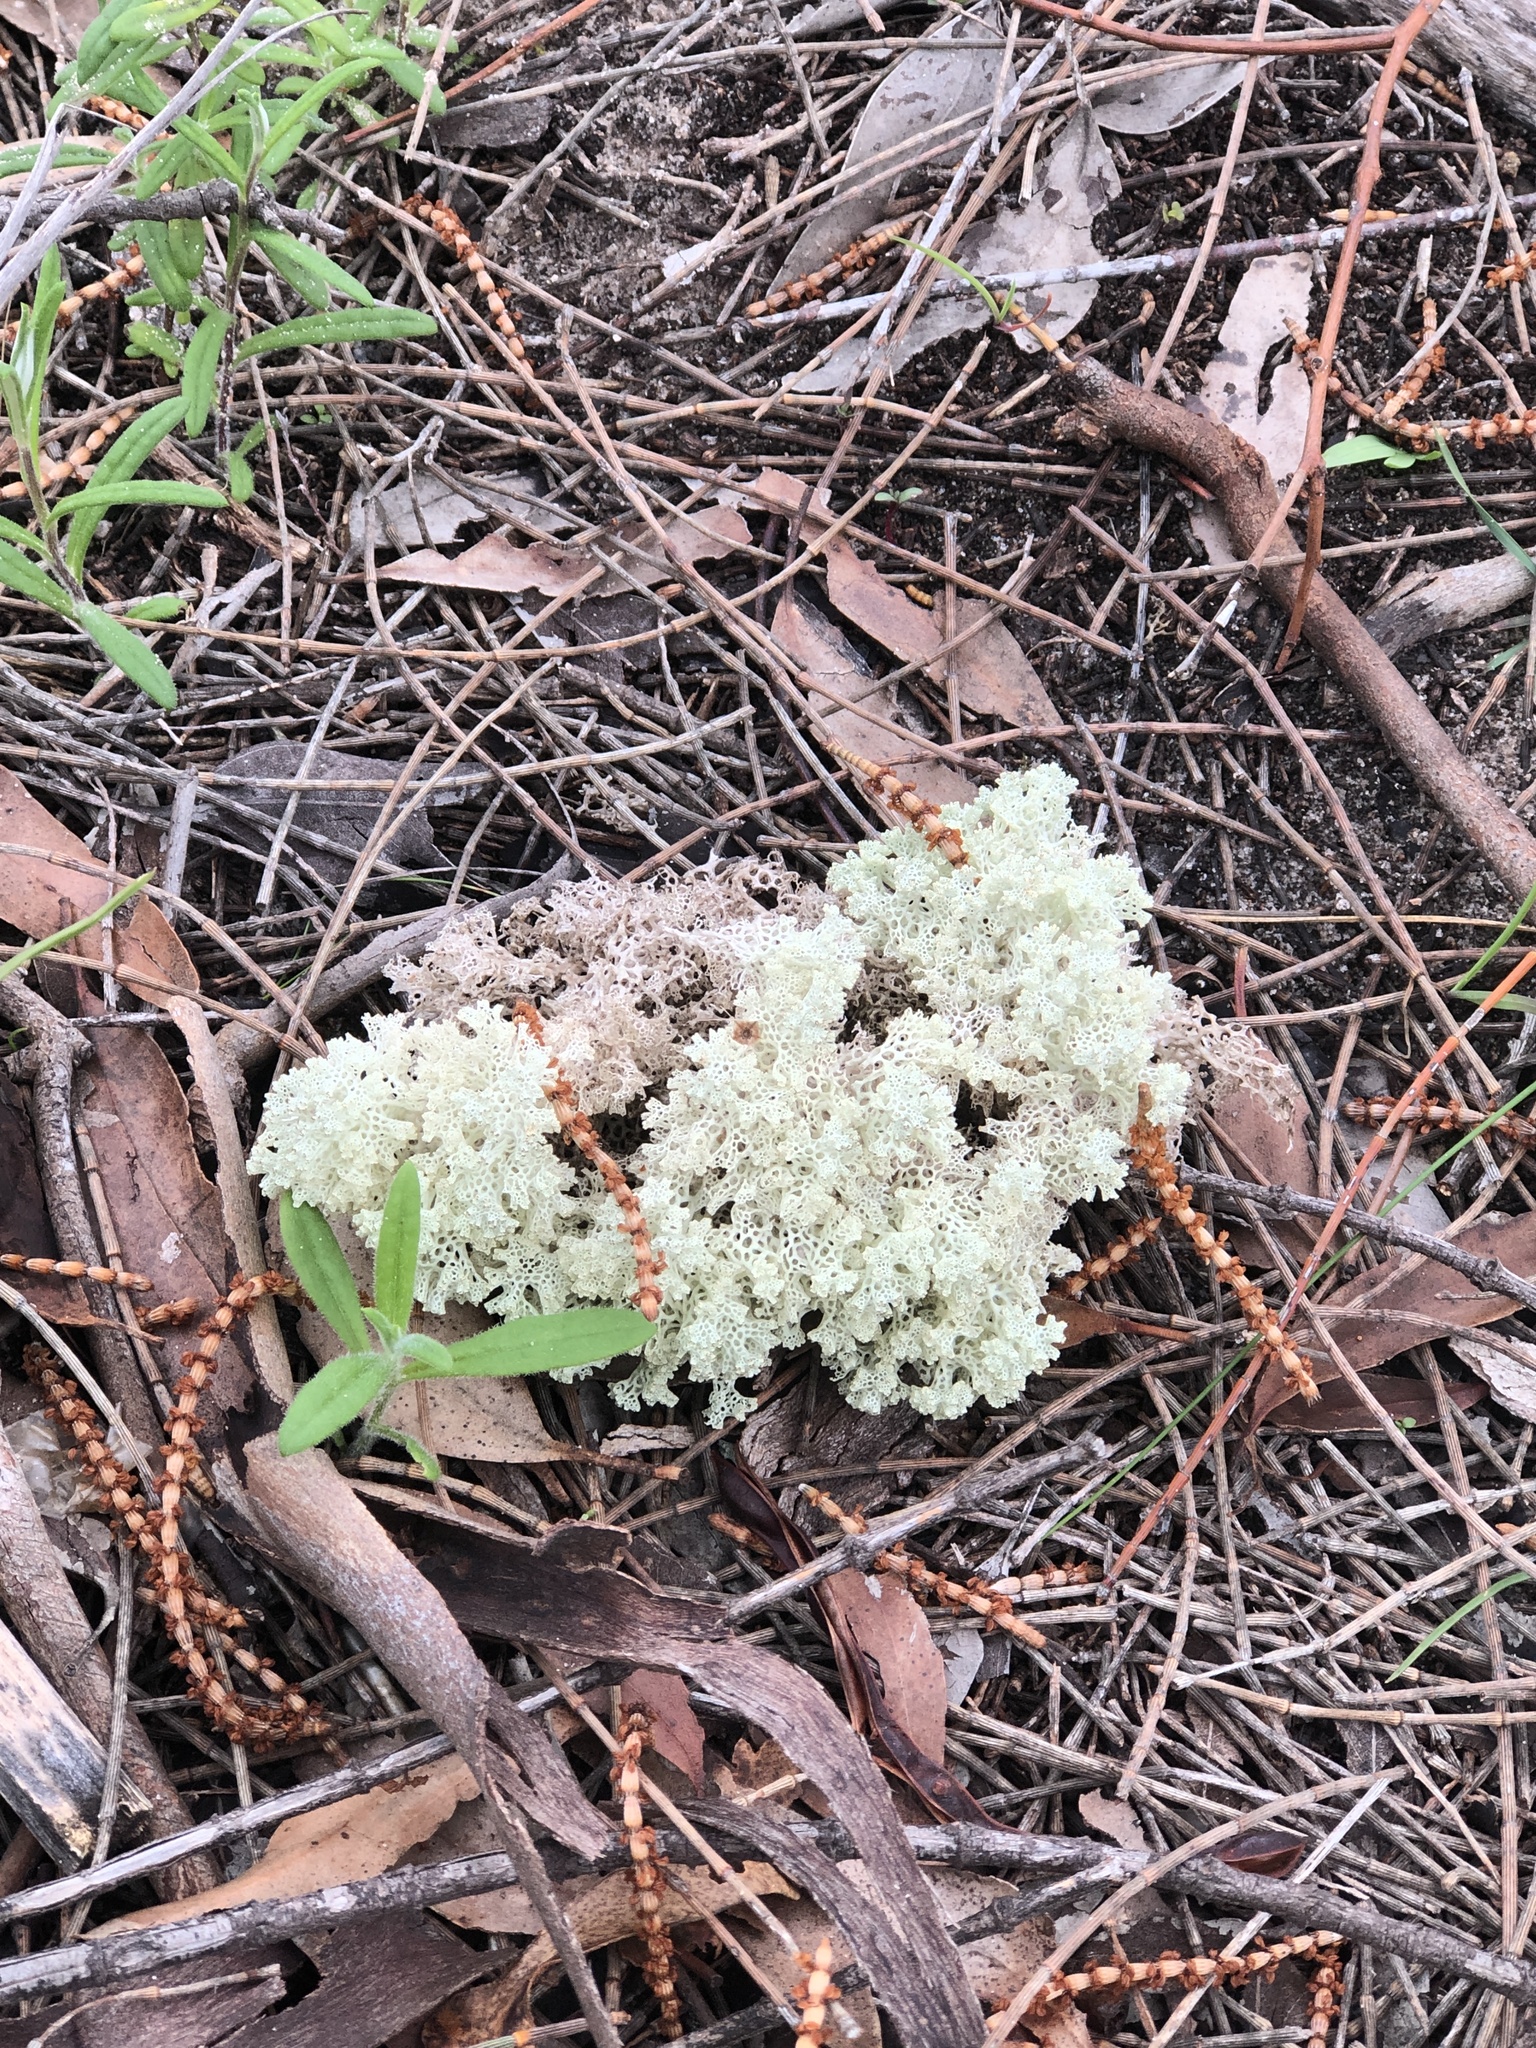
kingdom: Fungi
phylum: Ascomycota
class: Lecanoromycetes
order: Lecanorales
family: Cladoniaceae
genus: Pulchrocladia
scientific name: Pulchrocladia ferdinandii
